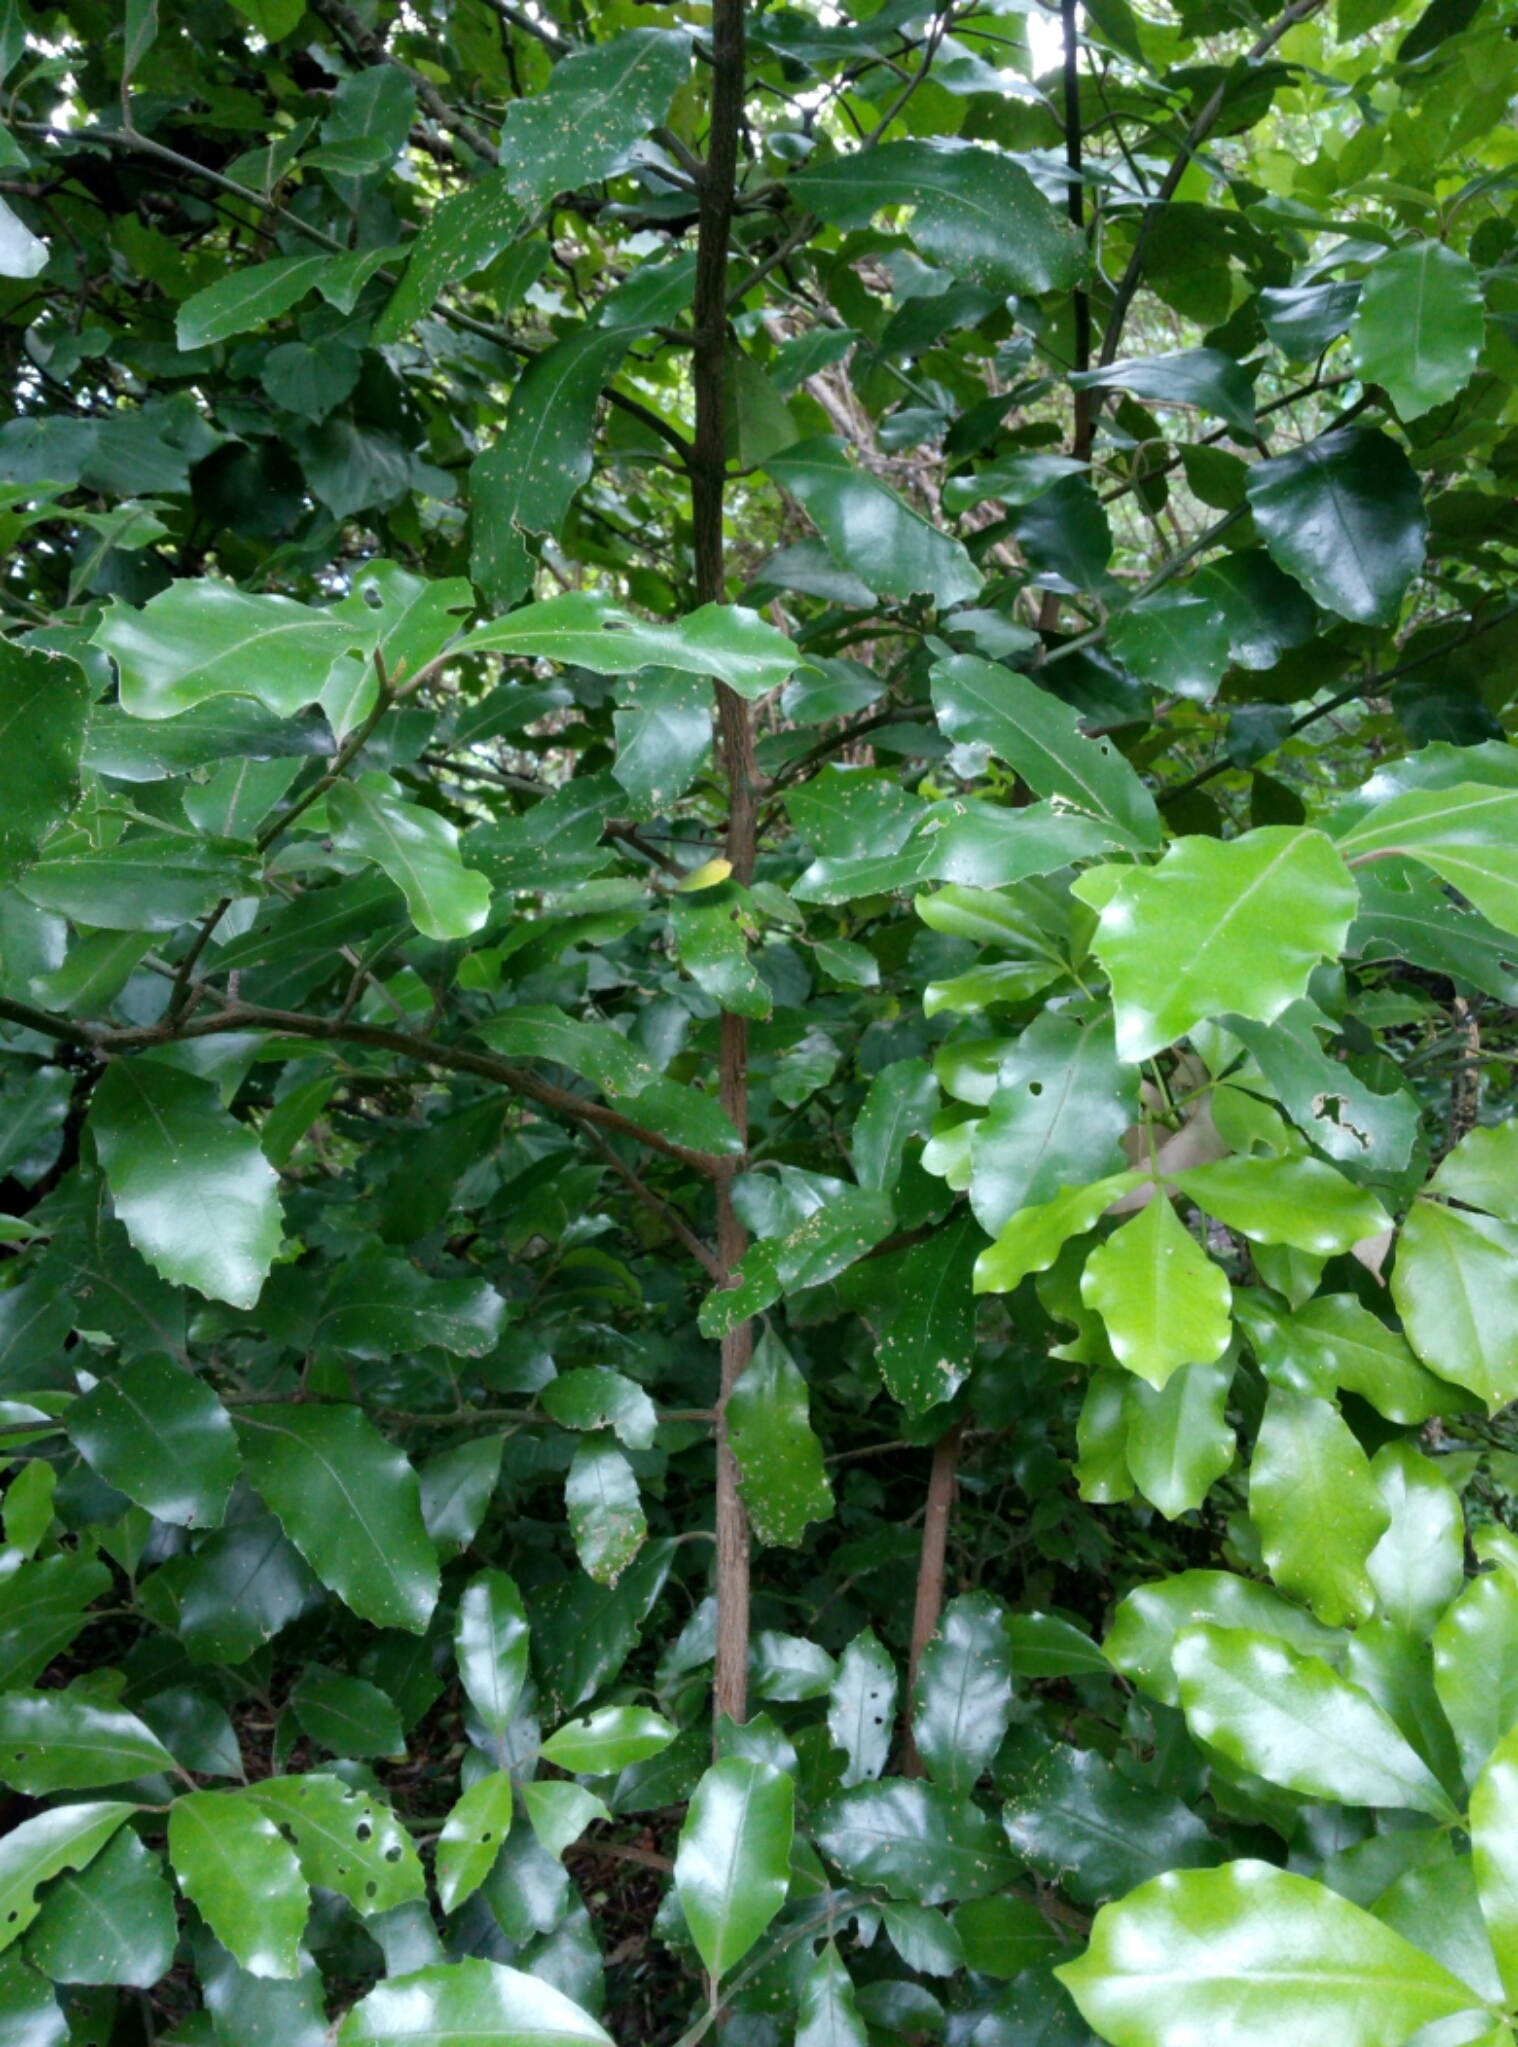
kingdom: Plantae
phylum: Tracheophyta
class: Magnoliopsida
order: Laurales
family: Monimiaceae
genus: Hedycarya
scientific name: Hedycarya arborea
